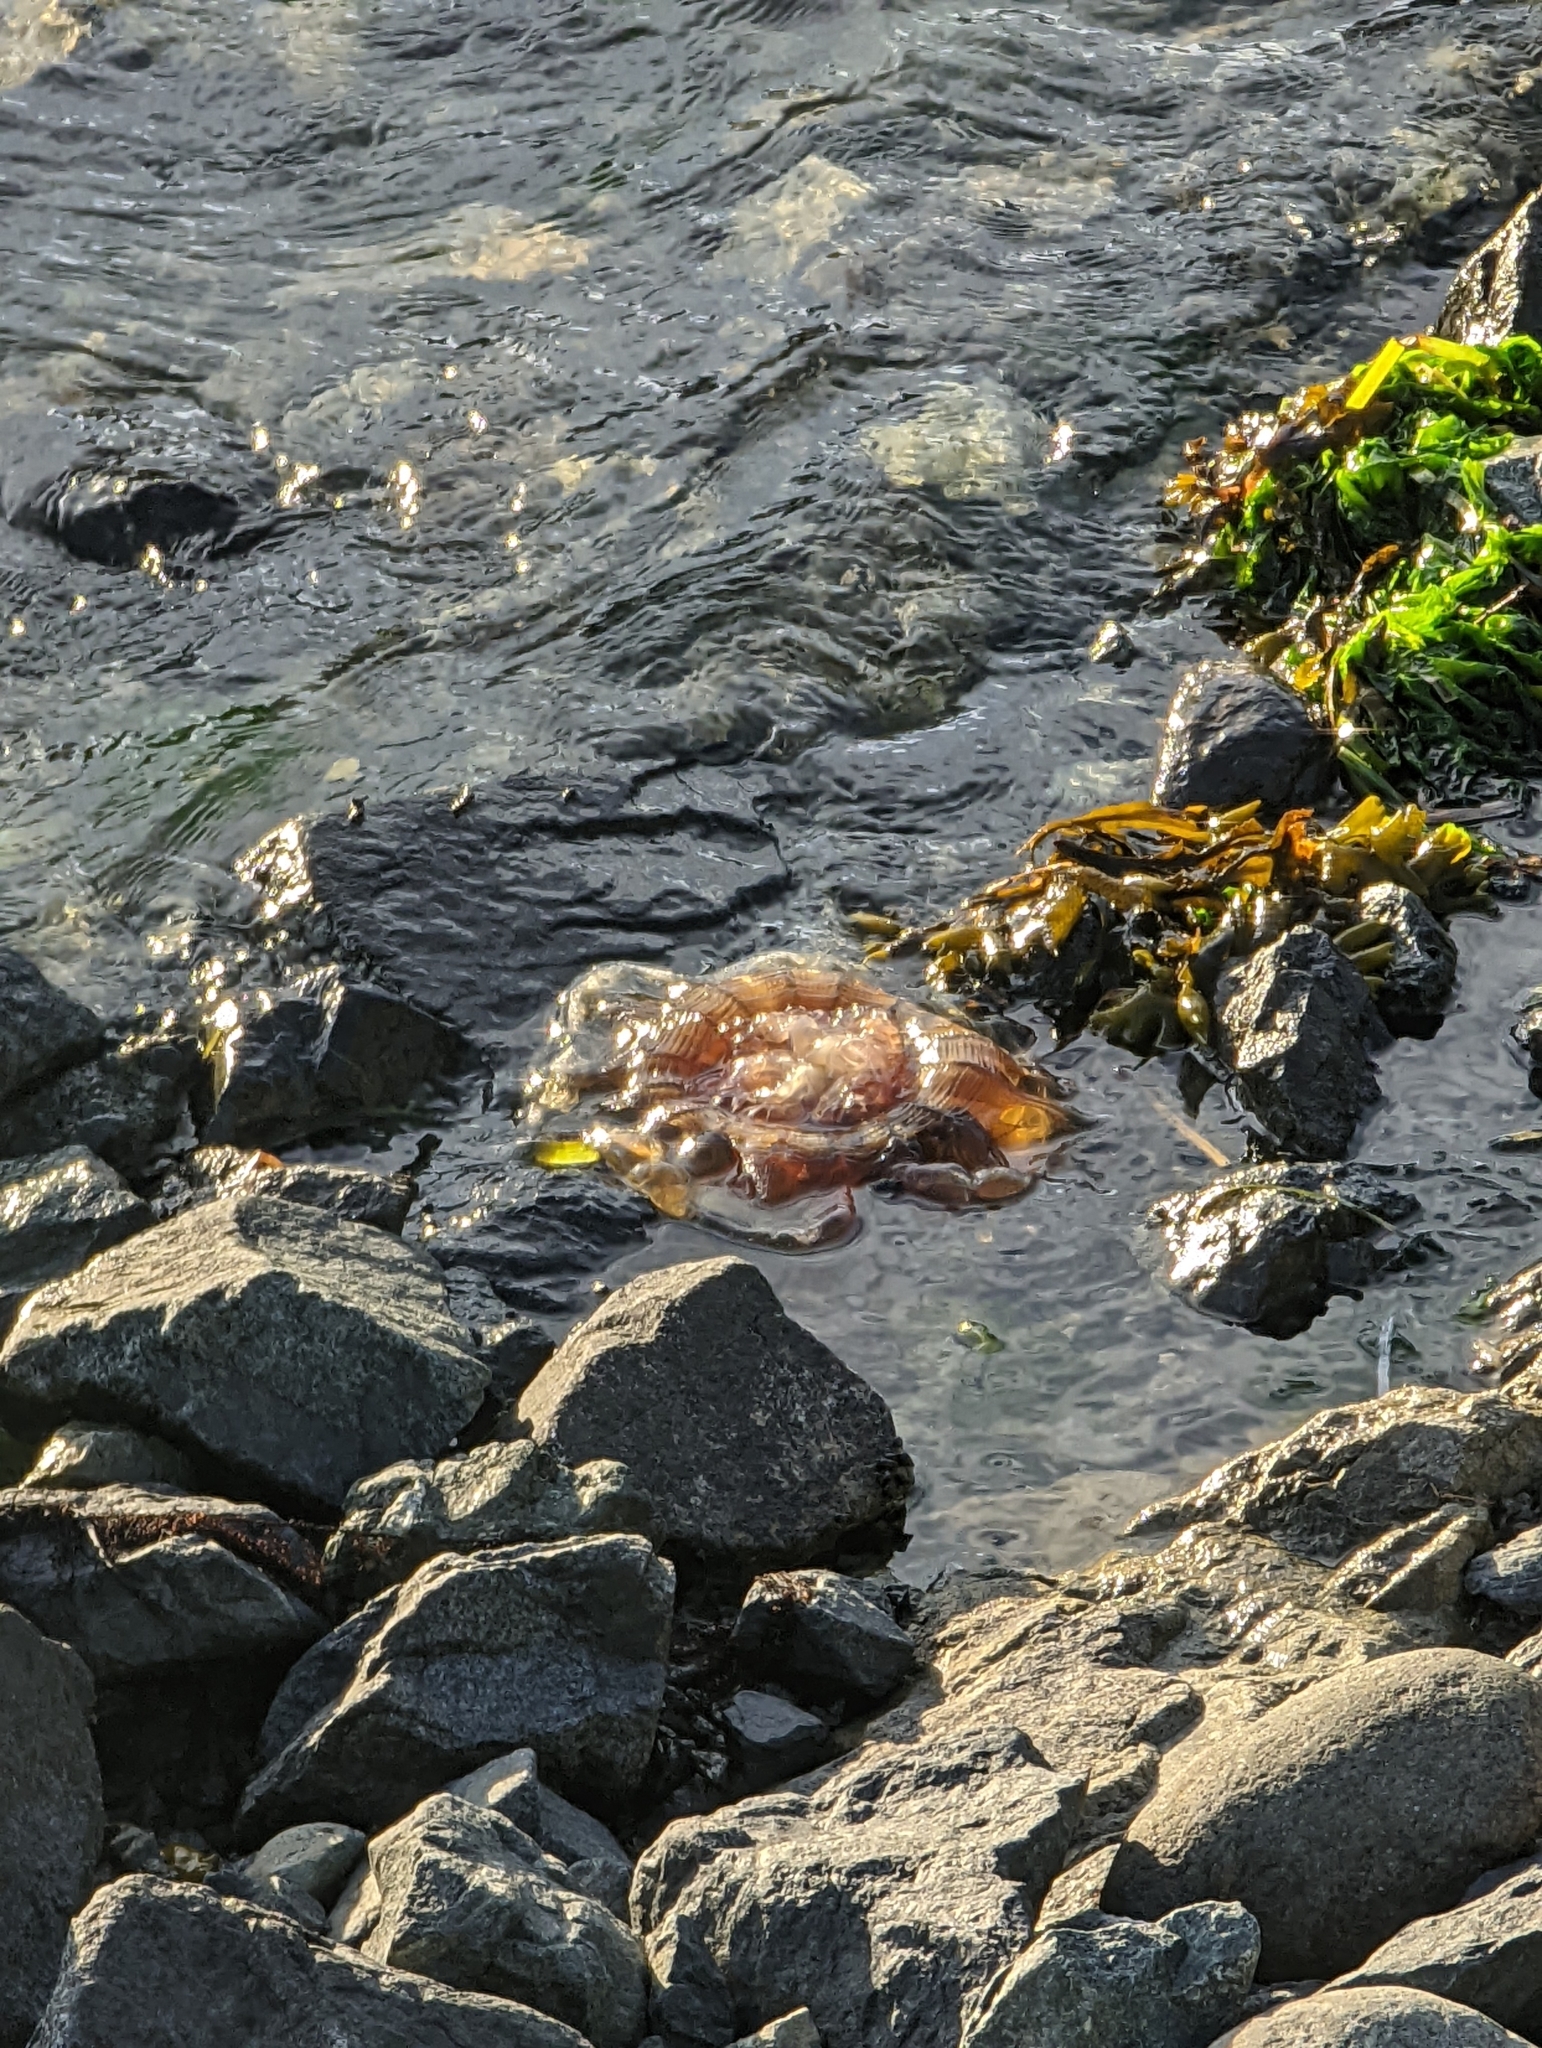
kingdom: Animalia
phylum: Cnidaria
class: Scyphozoa
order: Semaeostomeae
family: Cyaneidae
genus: Cyanea
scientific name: Cyanea ferruginea
